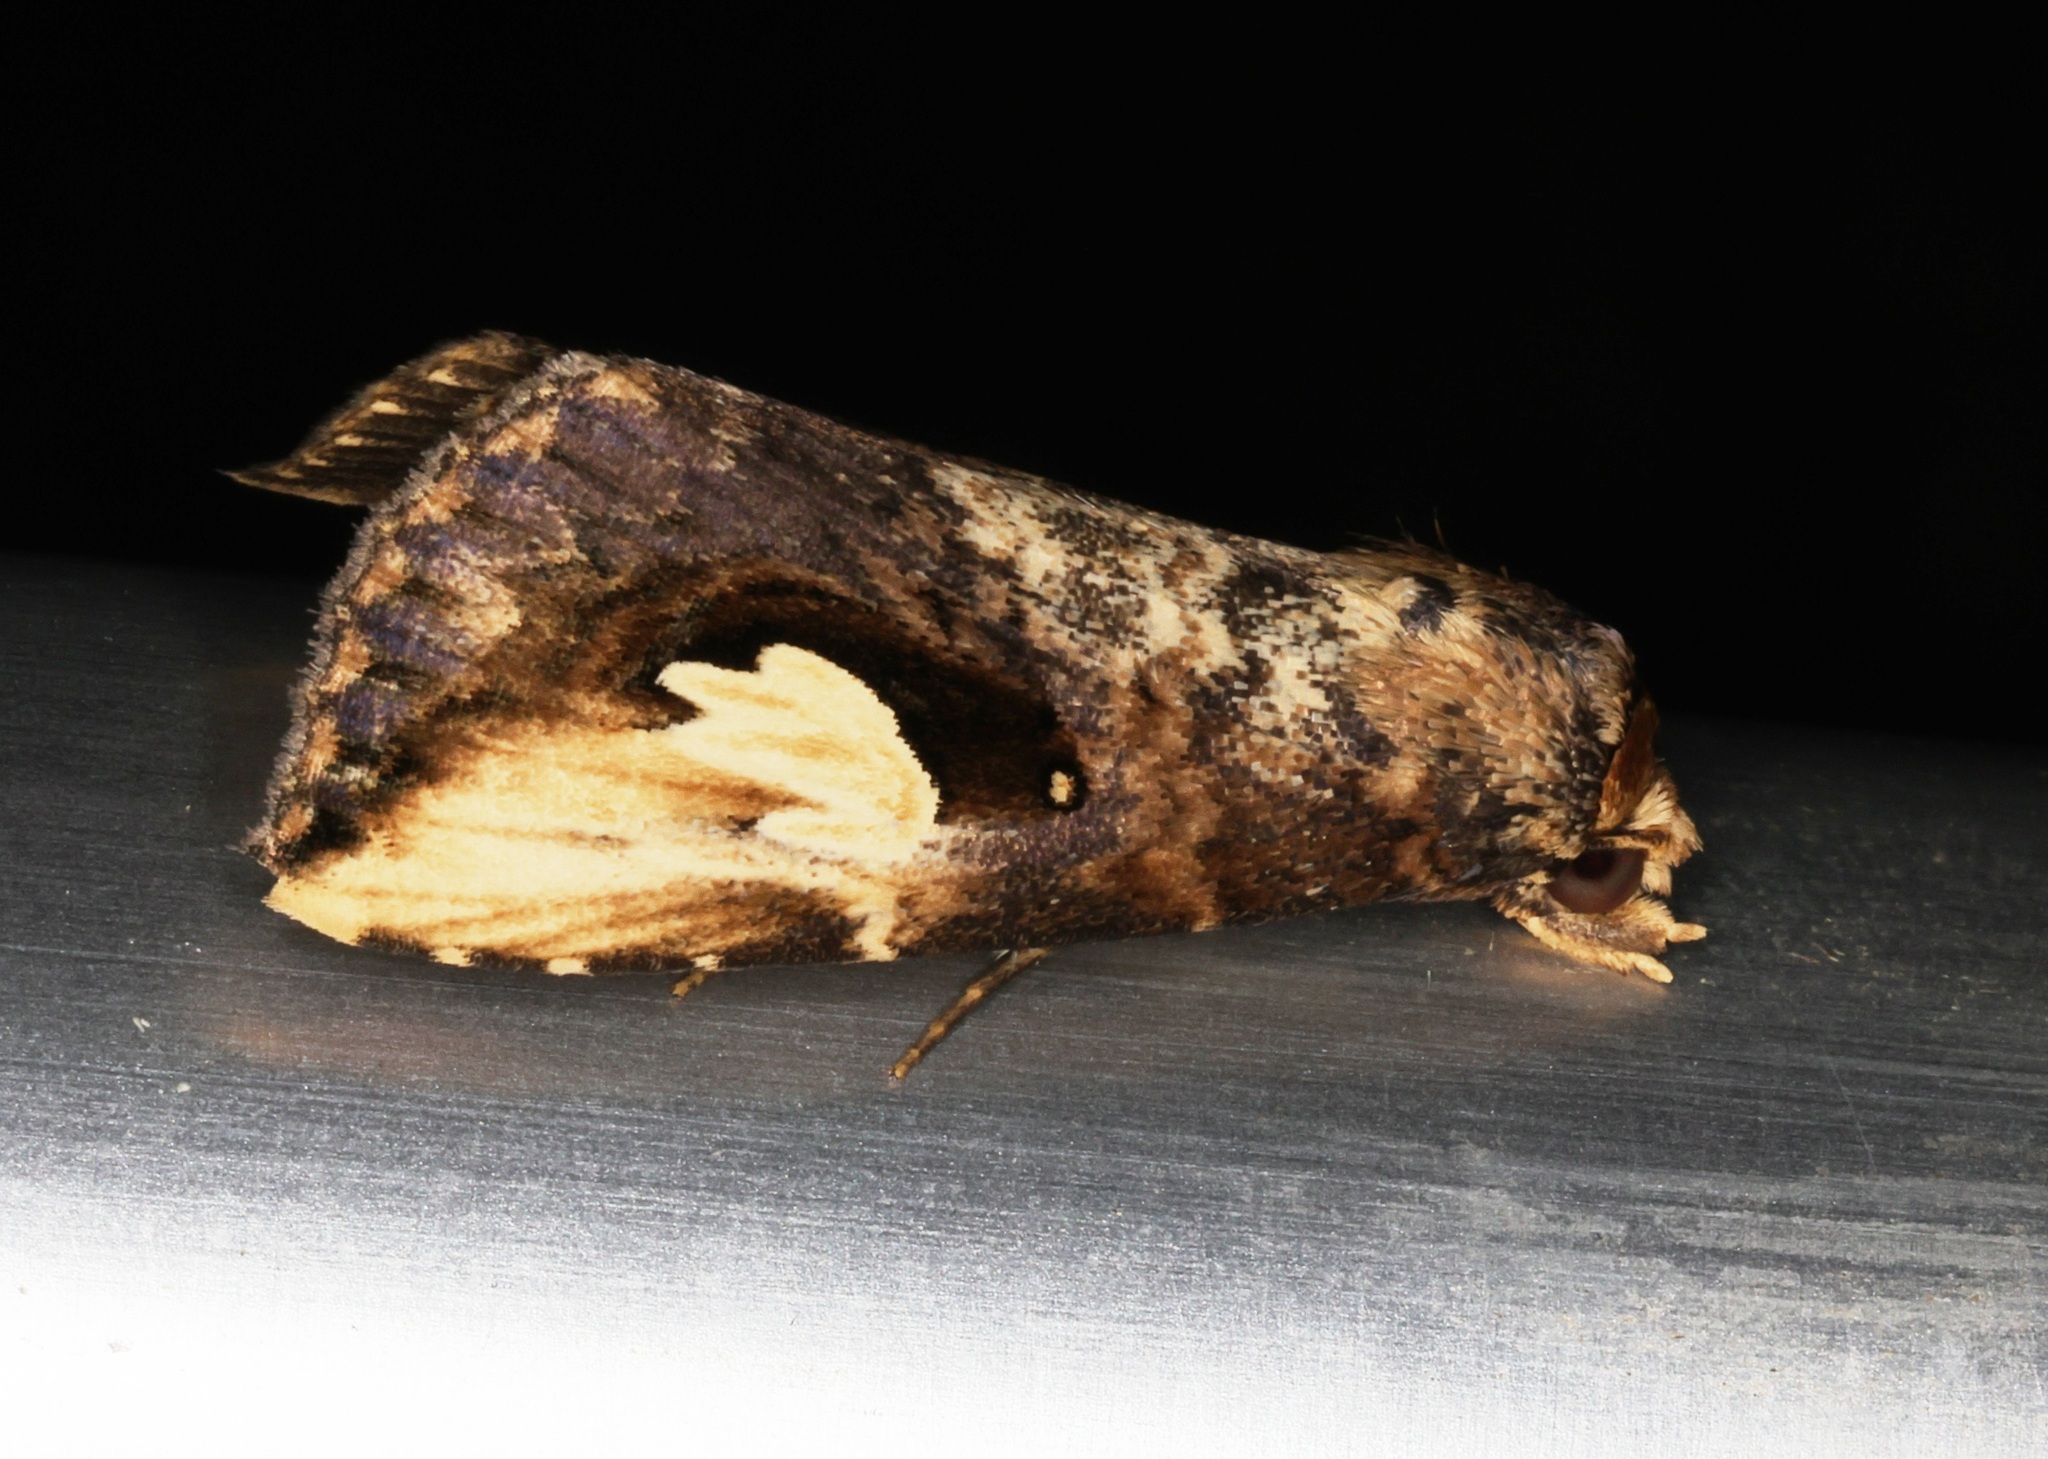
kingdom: Animalia
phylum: Arthropoda
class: Insecta
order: Lepidoptera
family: Erebidae
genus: Pseudosphetta
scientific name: Pseudosphetta fissisigna
